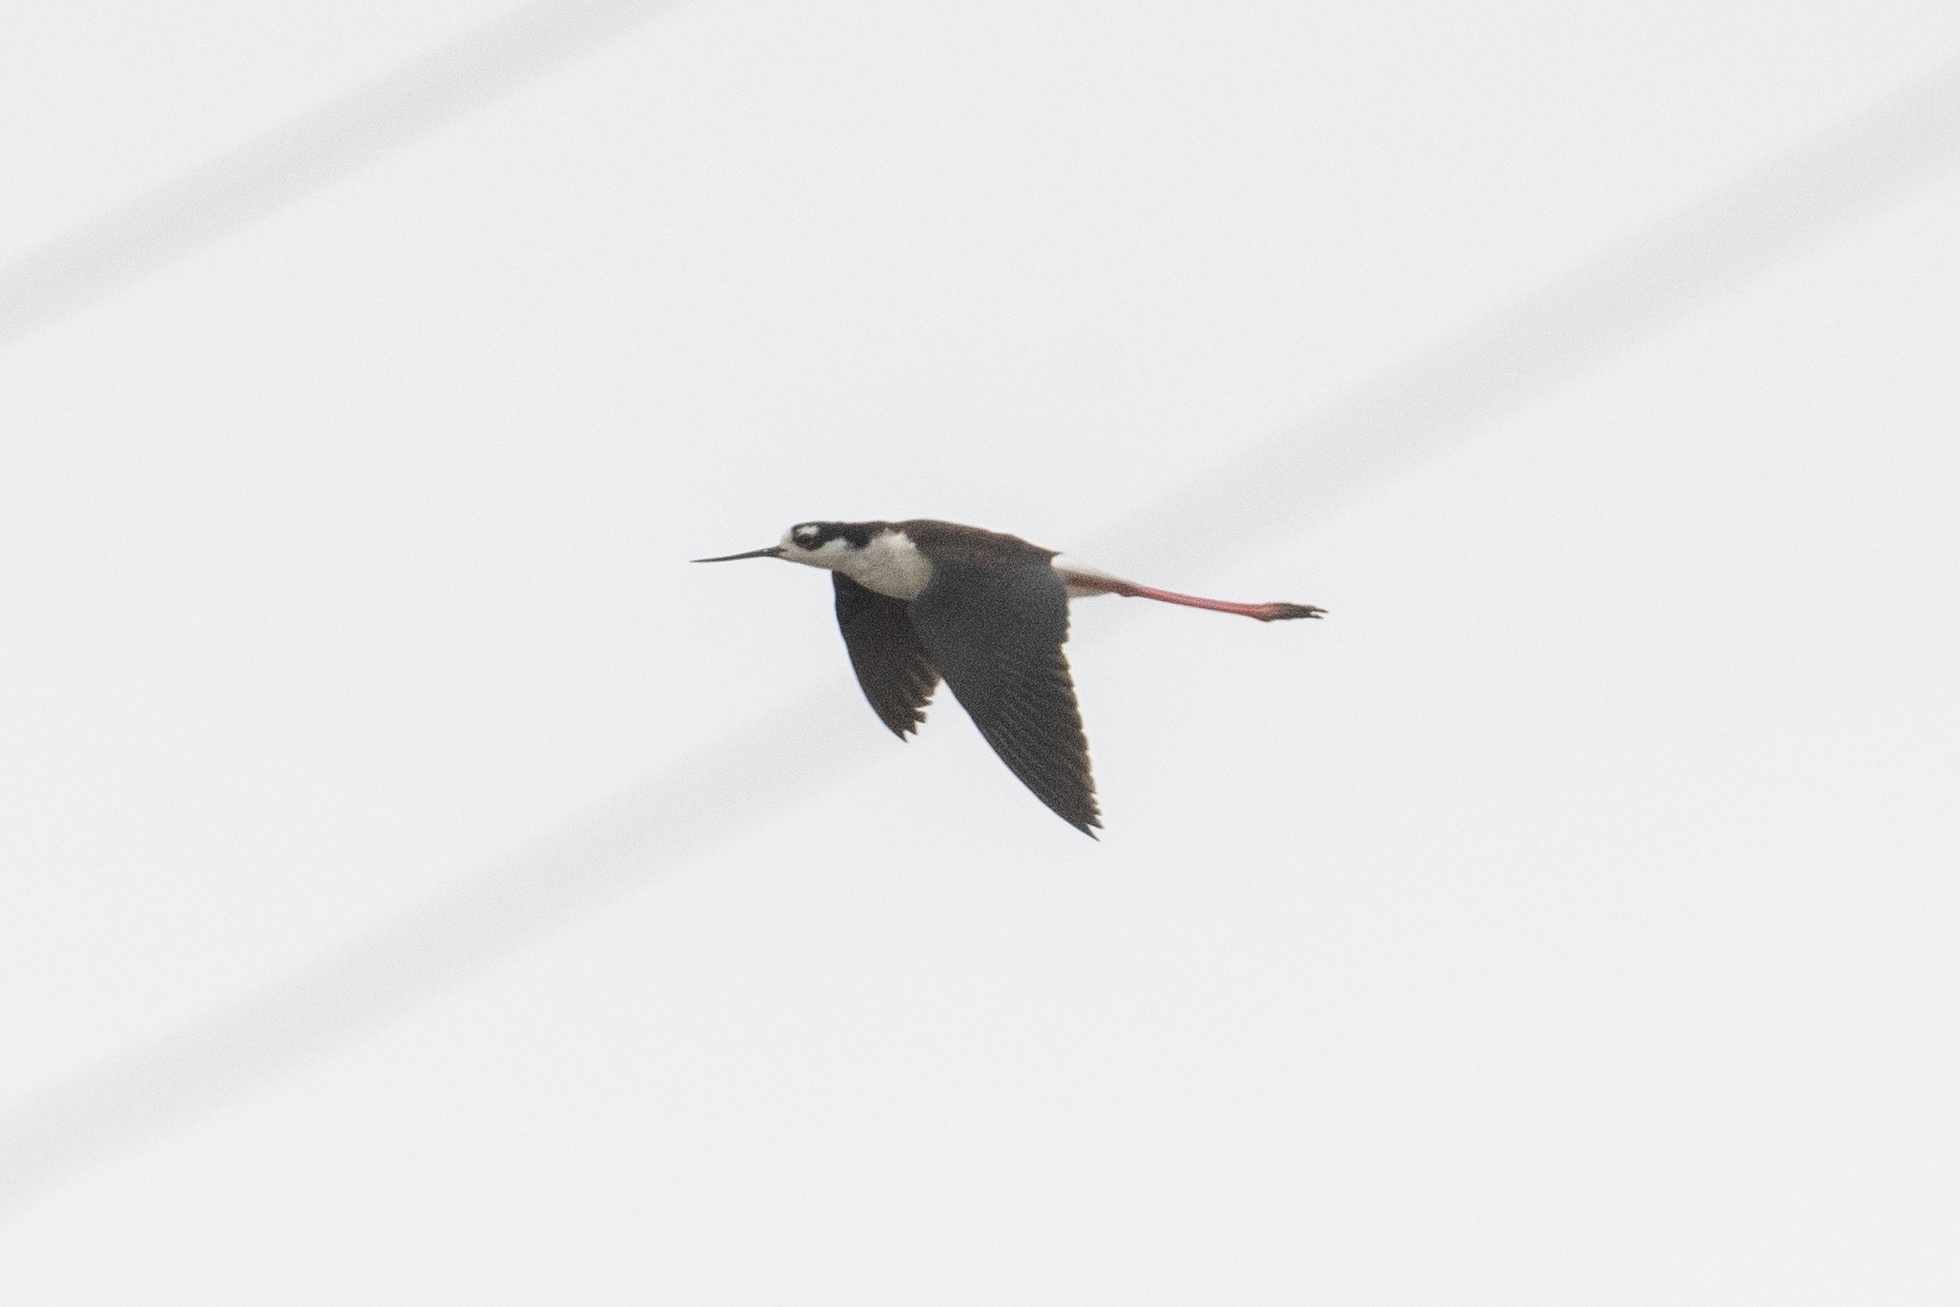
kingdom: Animalia
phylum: Chordata
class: Aves
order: Charadriiformes
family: Recurvirostridae
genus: Himantopus
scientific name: Himantopus mexicanus
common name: Black-necked stilt
